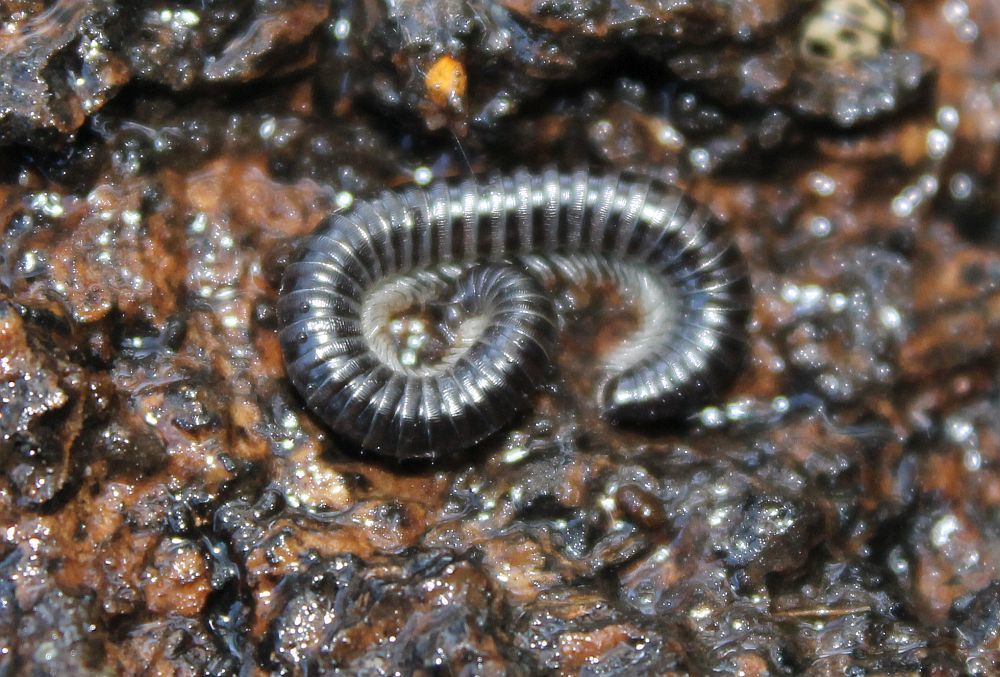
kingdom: Animalia
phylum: Arthropoda
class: Diplopoda
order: Julida
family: Julidae
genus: Tachypodoiulus
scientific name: Tachypodoiulus niger
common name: White-legged snake millipede
